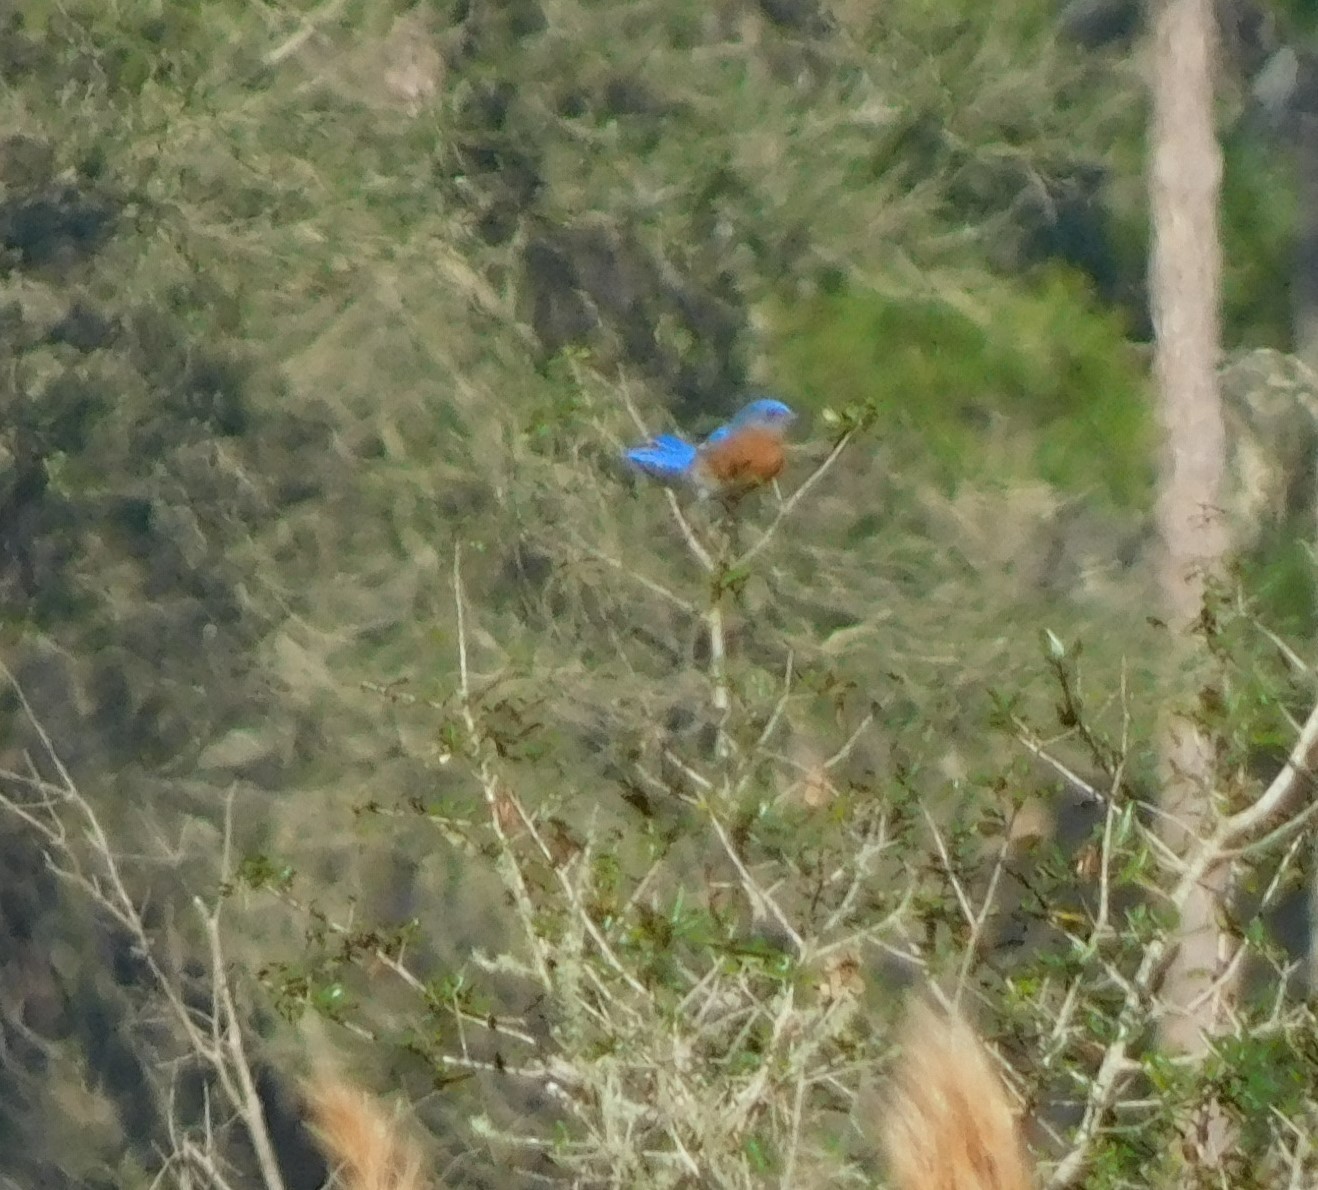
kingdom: Animalia
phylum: Chordata
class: Aves
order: Passeriformes
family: Turdidae
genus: Sialia
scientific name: Sialia sialis
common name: Eastern bluebird
